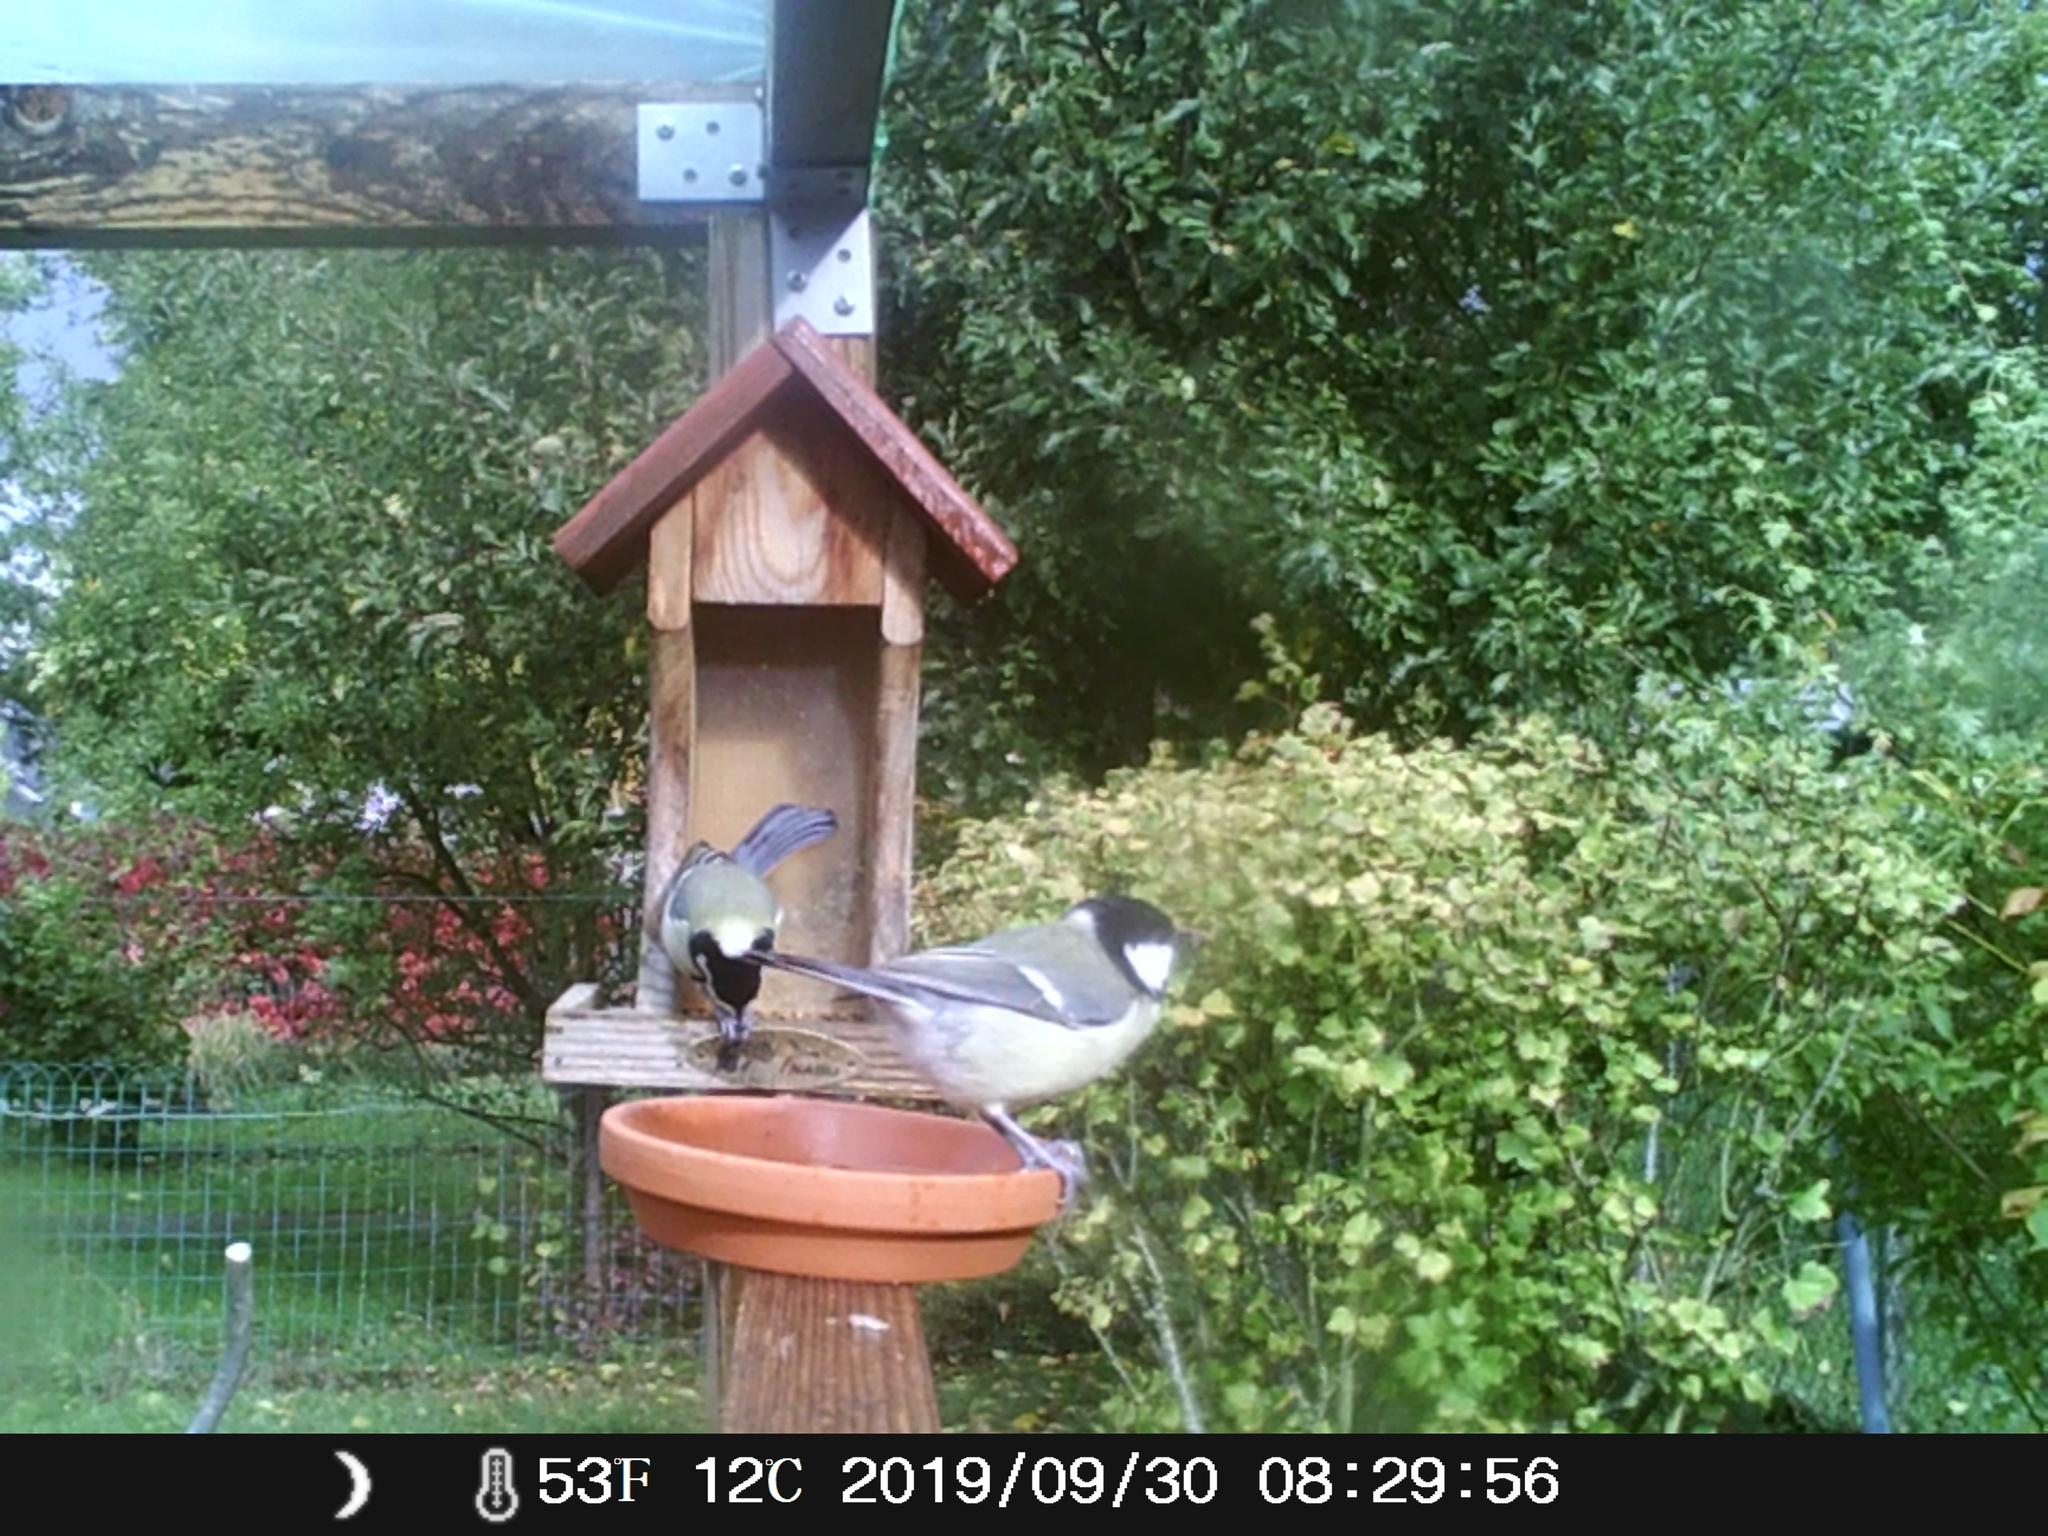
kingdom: Animalia
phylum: Chordata
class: Aves
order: Passeriformes
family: Paridae
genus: Parus
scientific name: Parus major
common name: Great tit
